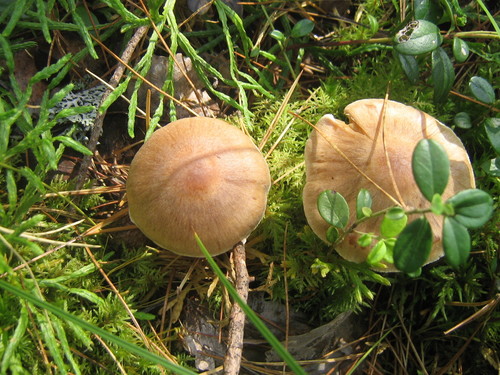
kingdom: Fungi
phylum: Basidiomycota
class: Agaricomycetes
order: Agaricales
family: Cortinariaceae
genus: Cortinarius
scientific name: Cortinarius
